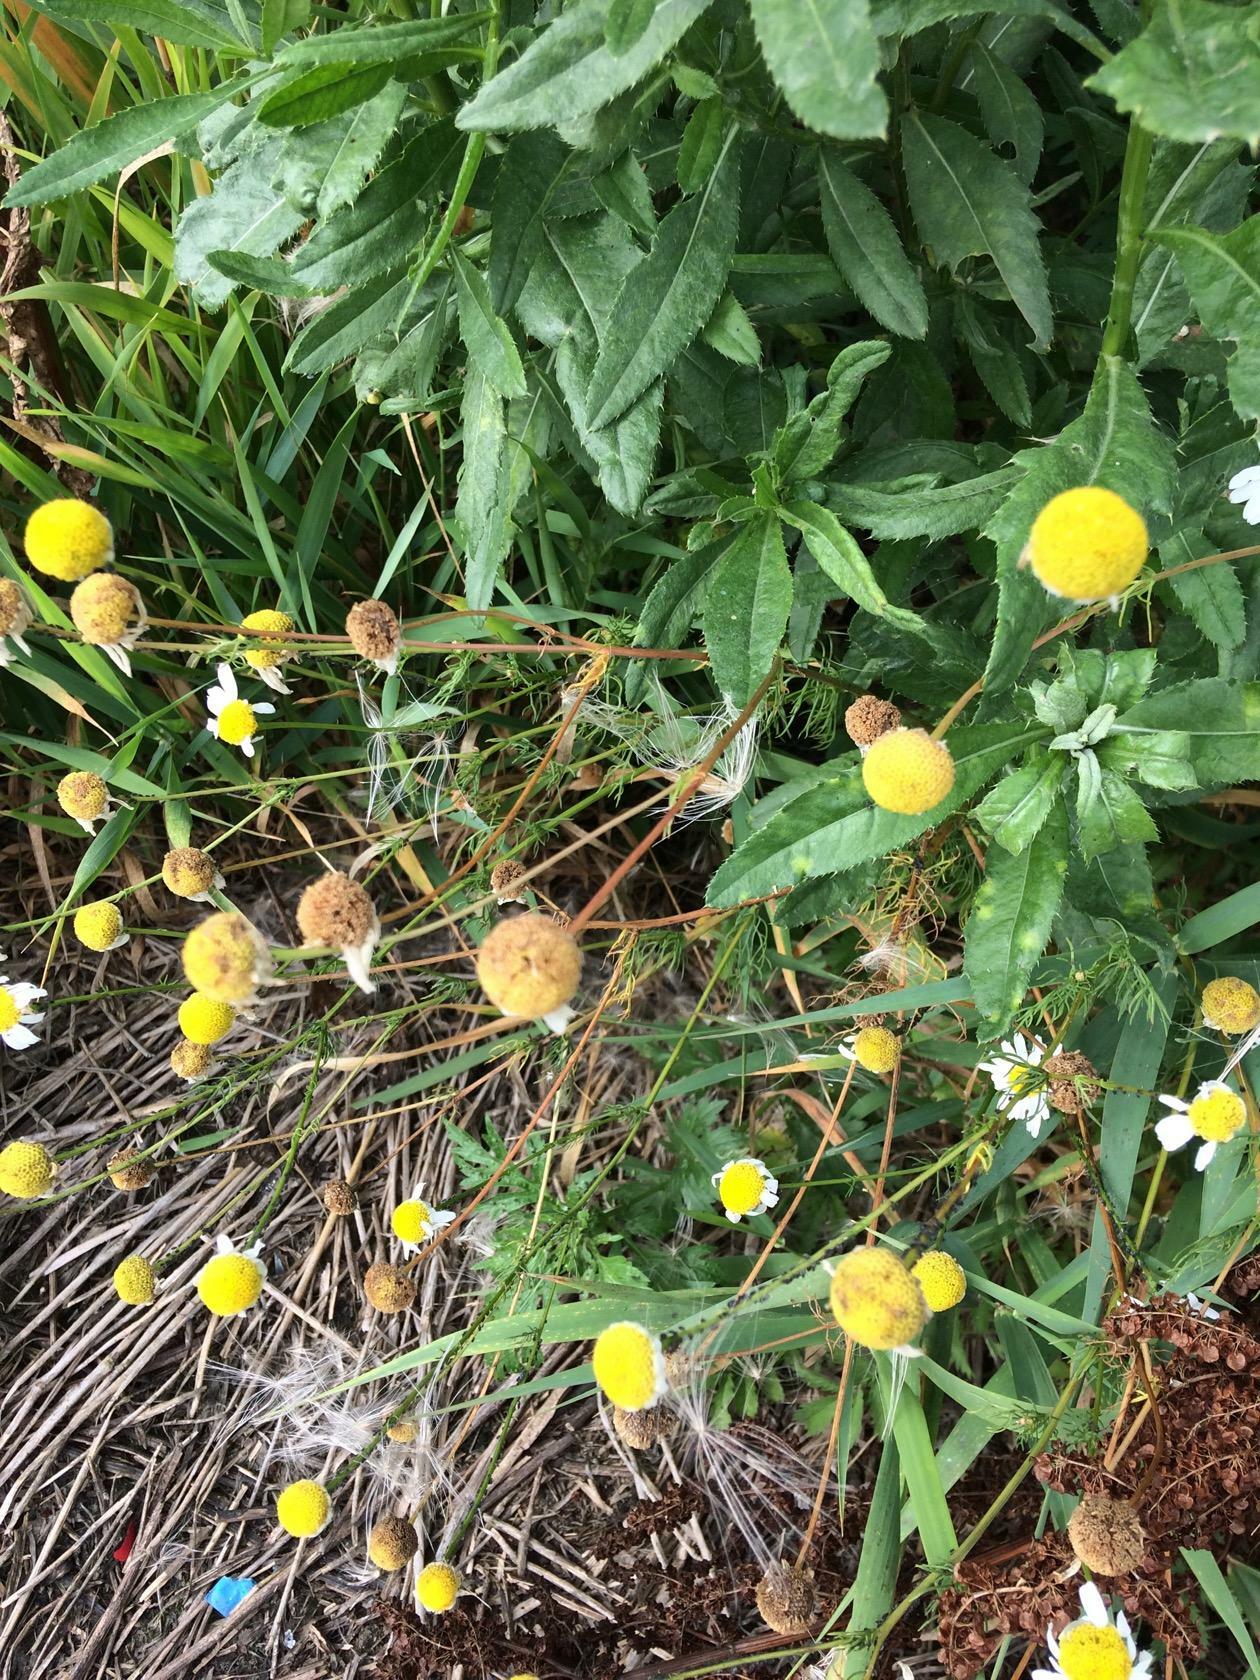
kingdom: Plantae
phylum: Tracheophyta
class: Magnoliopsida
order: Asterales
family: Asteraceae
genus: Tripleurospermum
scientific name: Tripleurospermum inodorum
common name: Scentless mayweed
